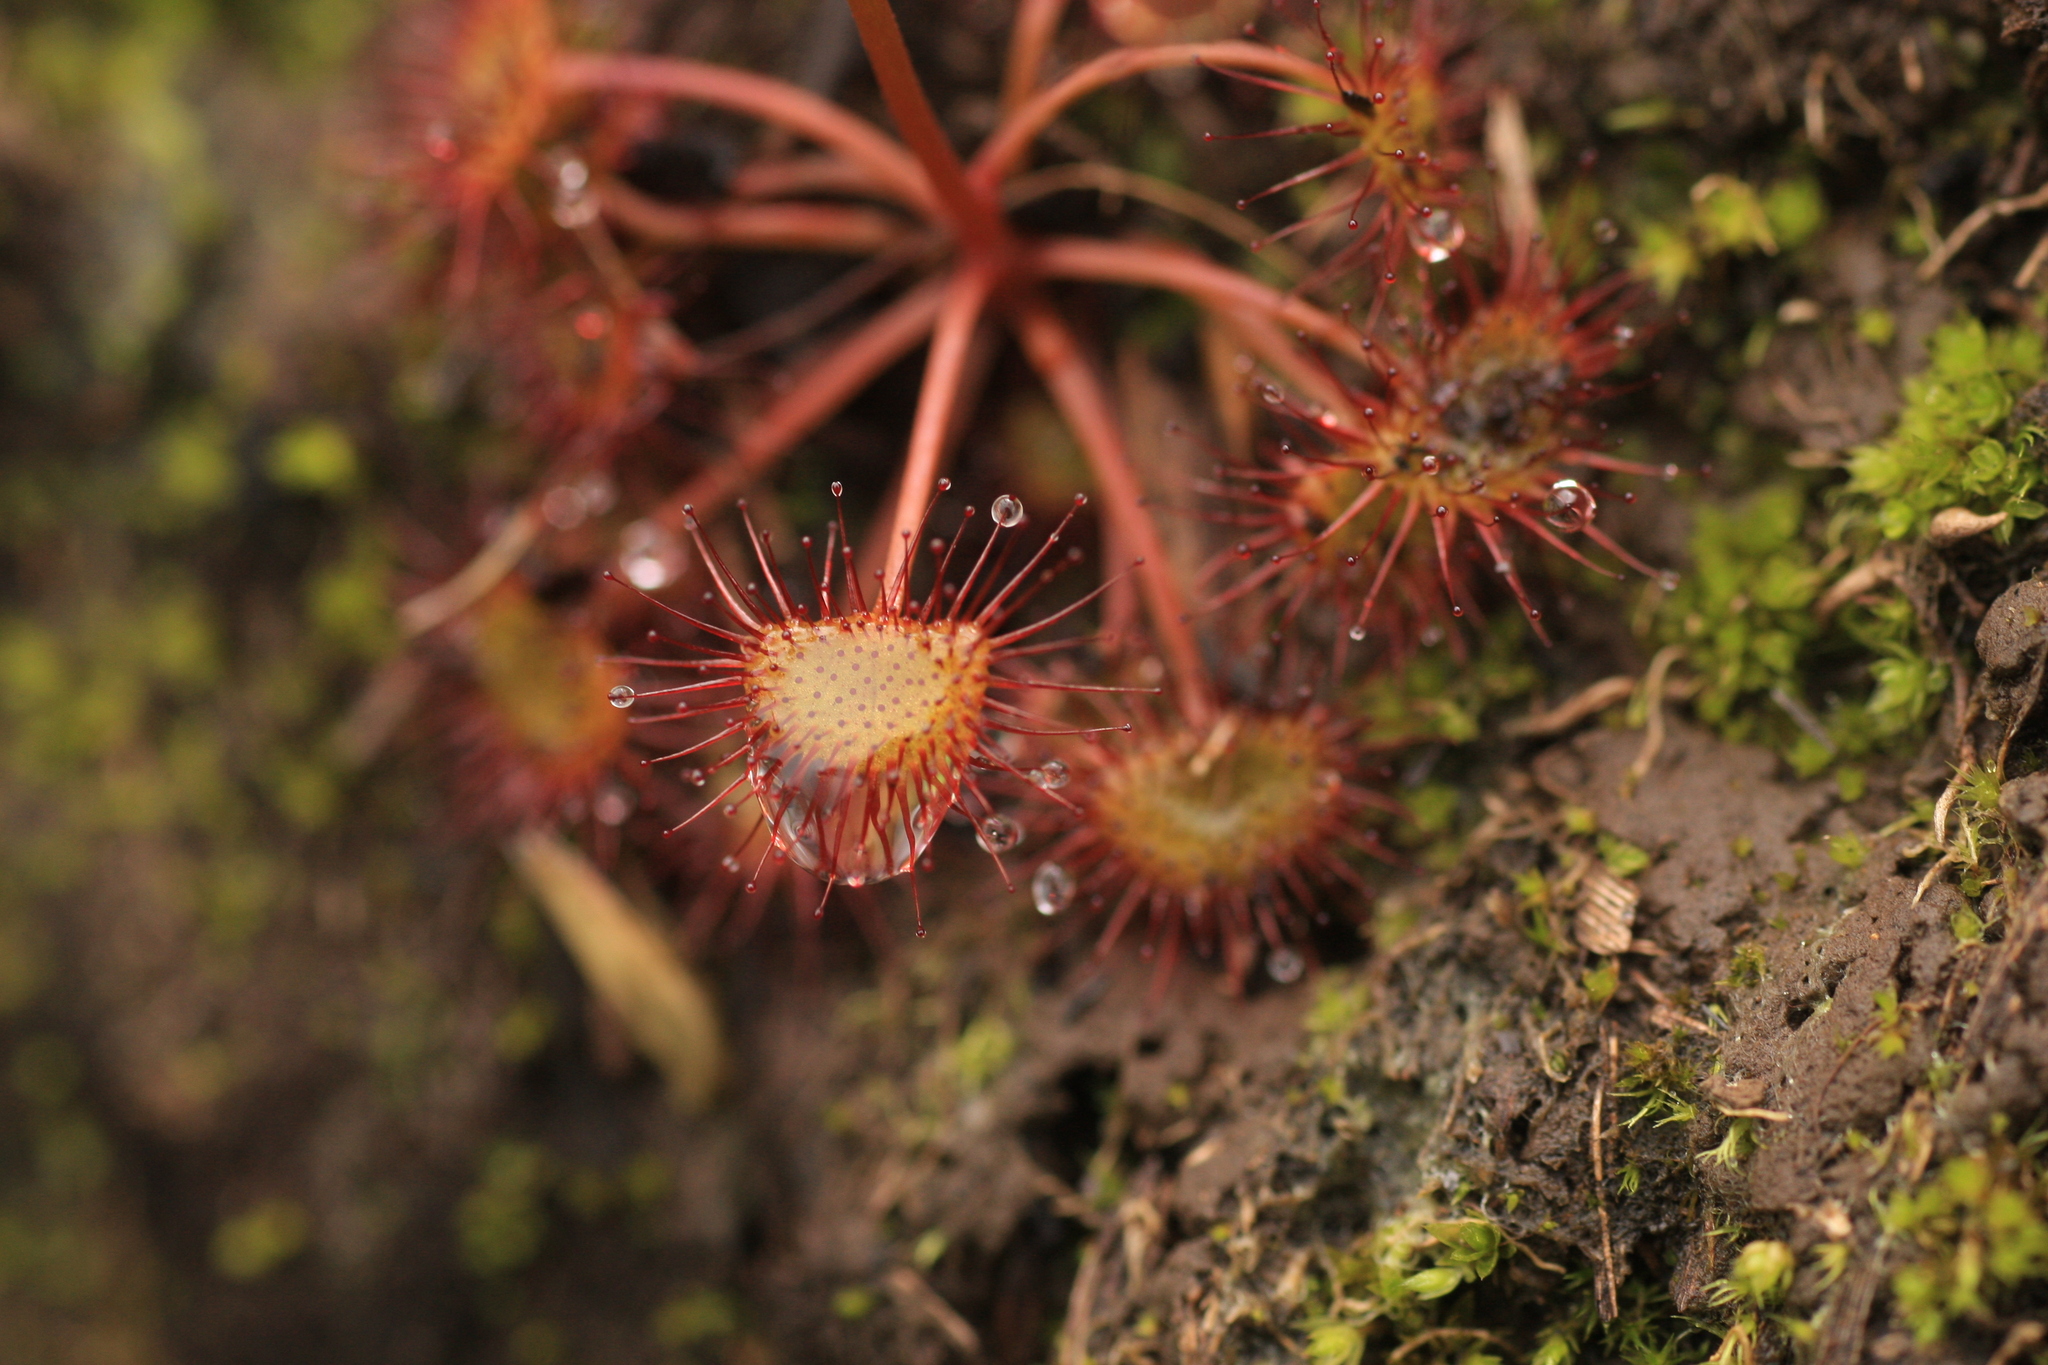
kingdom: Plantae
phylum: Tracheophyta
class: Magnoliopsida
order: Caryophyllales
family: Droseraceae
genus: Drosera
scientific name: Drosera peltata
